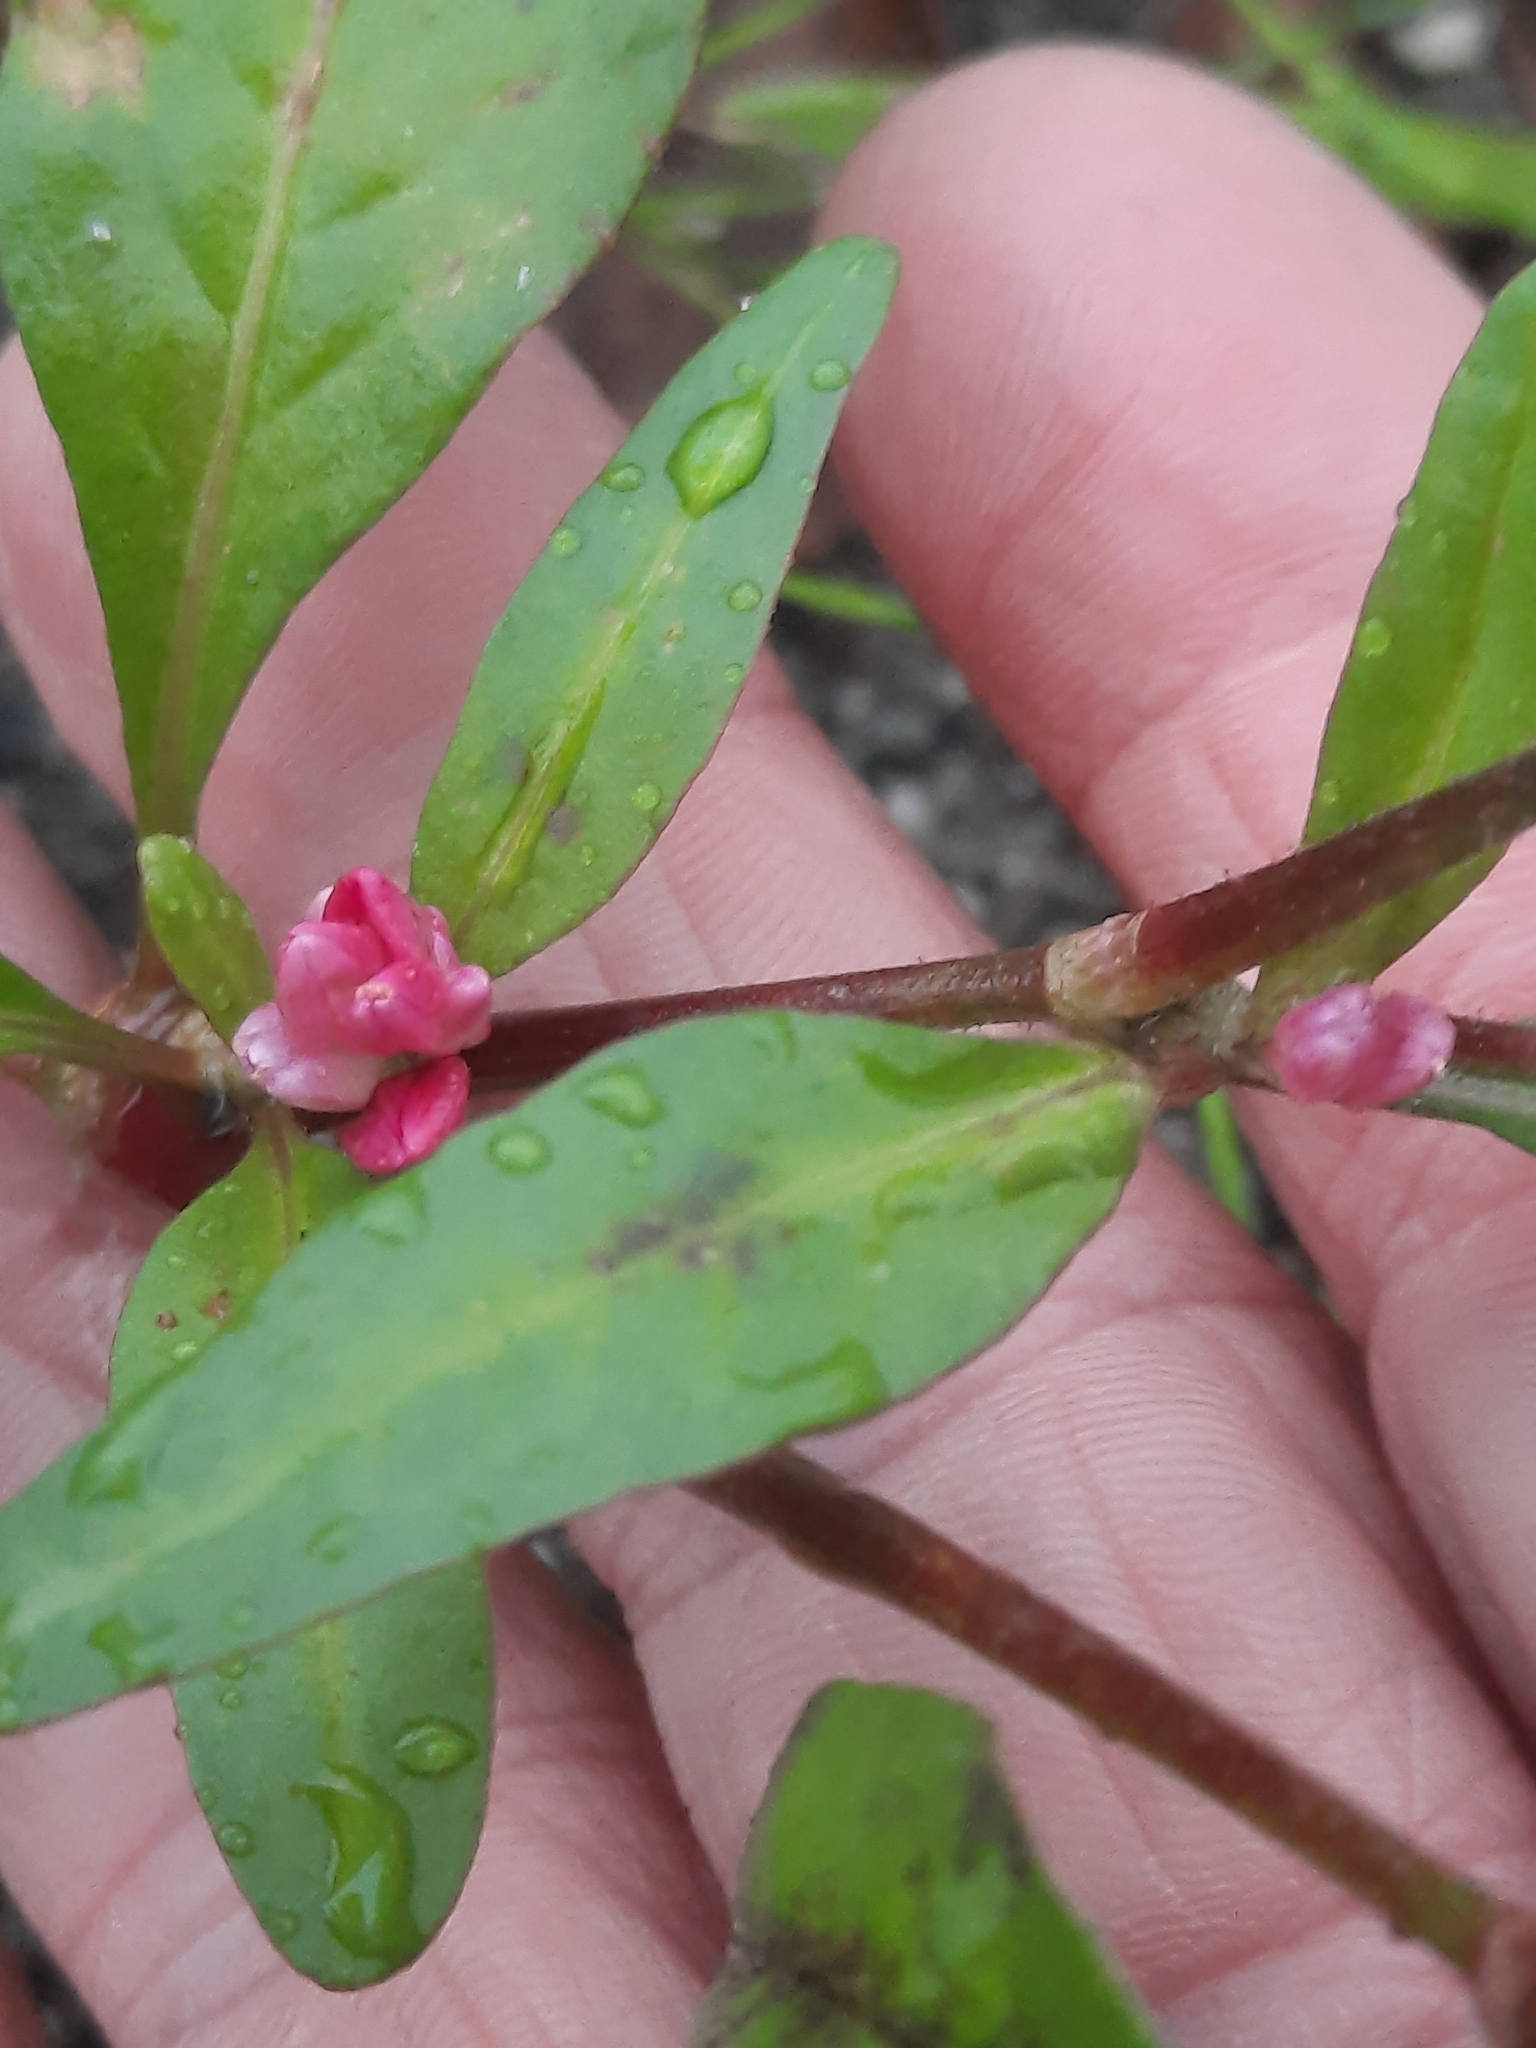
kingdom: Plantae
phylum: Tracheophyta
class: Magnoliopsida
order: Caryophyllales
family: Polygonaceae
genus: Persicaria
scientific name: Persicaria pensylvanica
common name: Pinkweed
